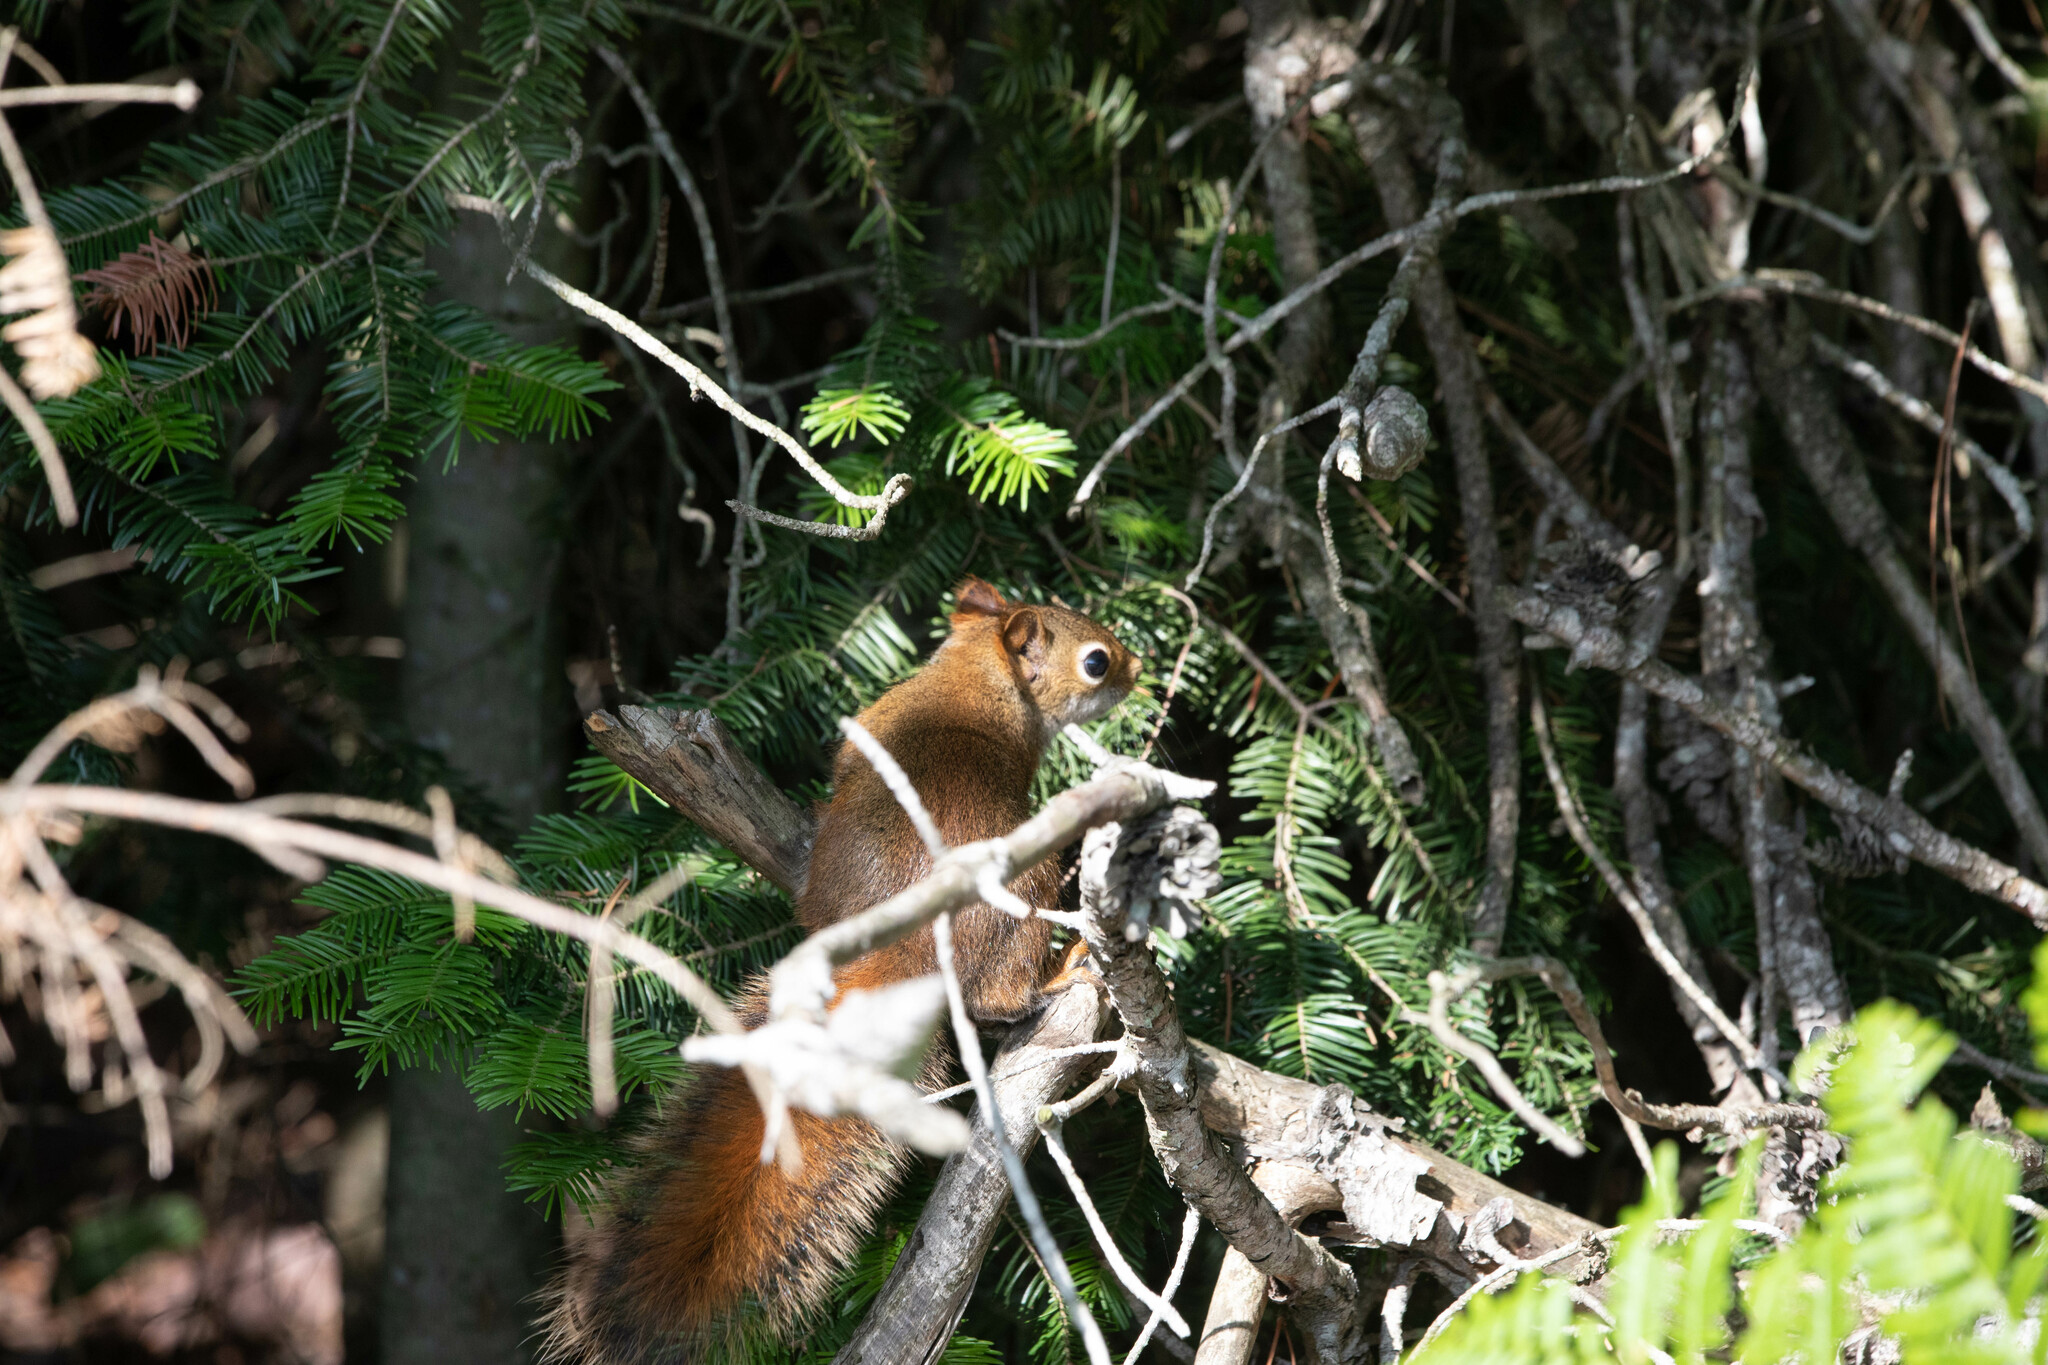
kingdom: Animalia
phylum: Chordata
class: Mammalia
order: Rodentia
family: Sciuridae
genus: Tamiasciurus
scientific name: Tamiasciurus hudsonicus
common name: Red squirrel
